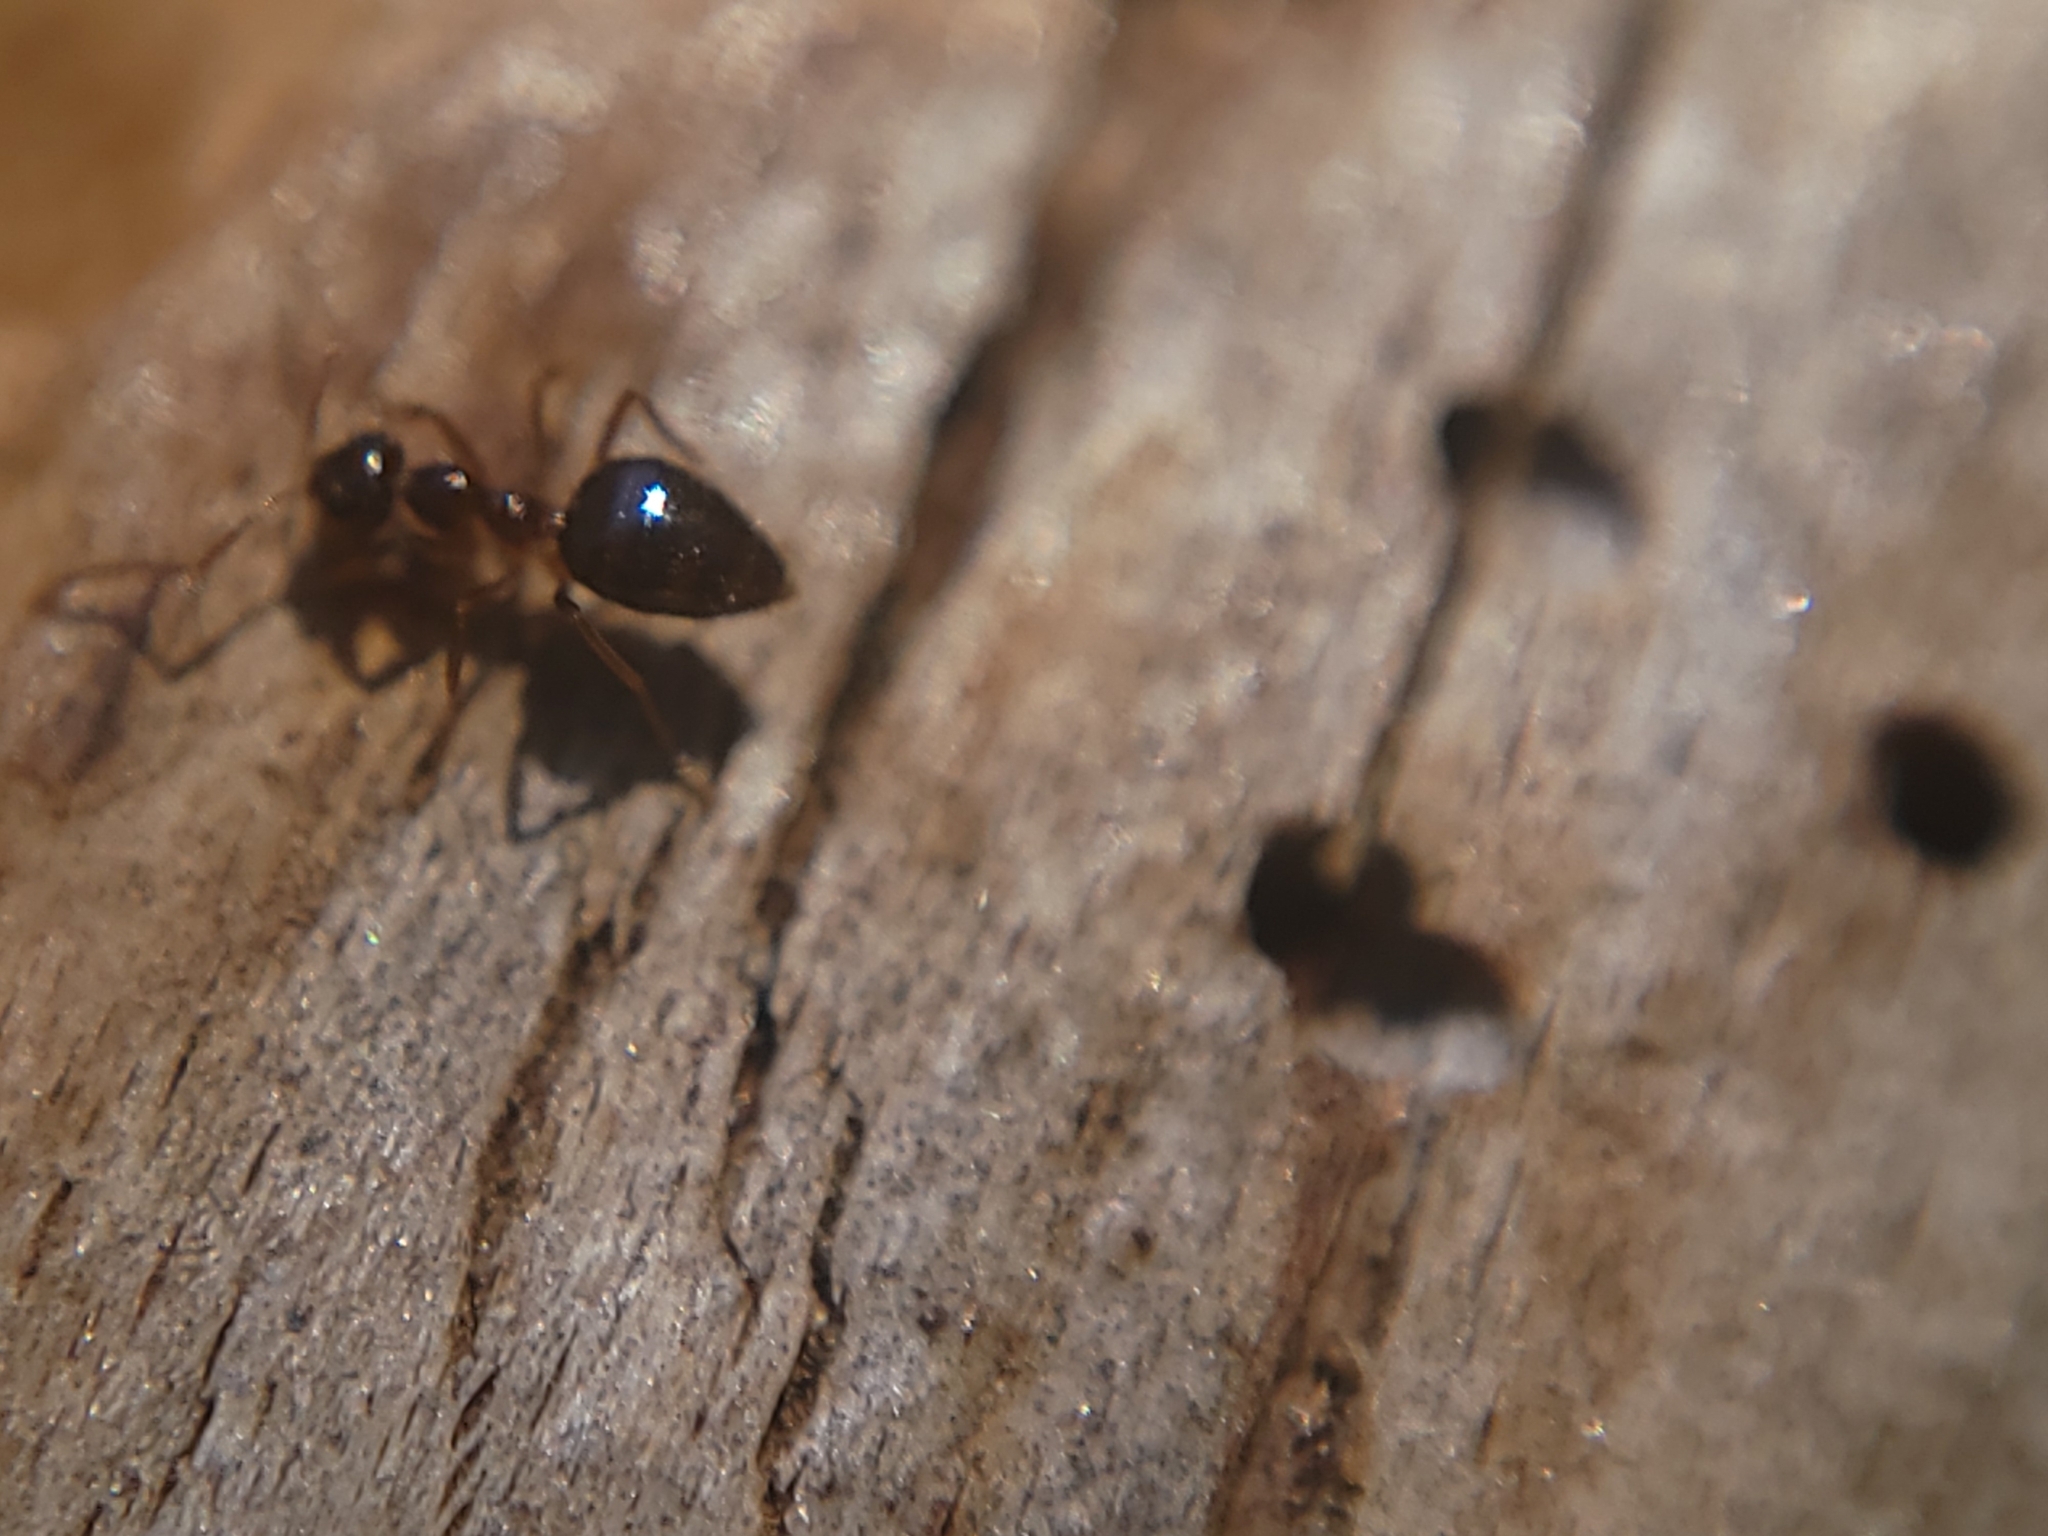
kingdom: Animalia
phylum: Arthropoda
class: Insecta
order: Hymenoptera
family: Formicidae
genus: Prenolepis
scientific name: Prenolepis imparis
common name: Small honey ant
